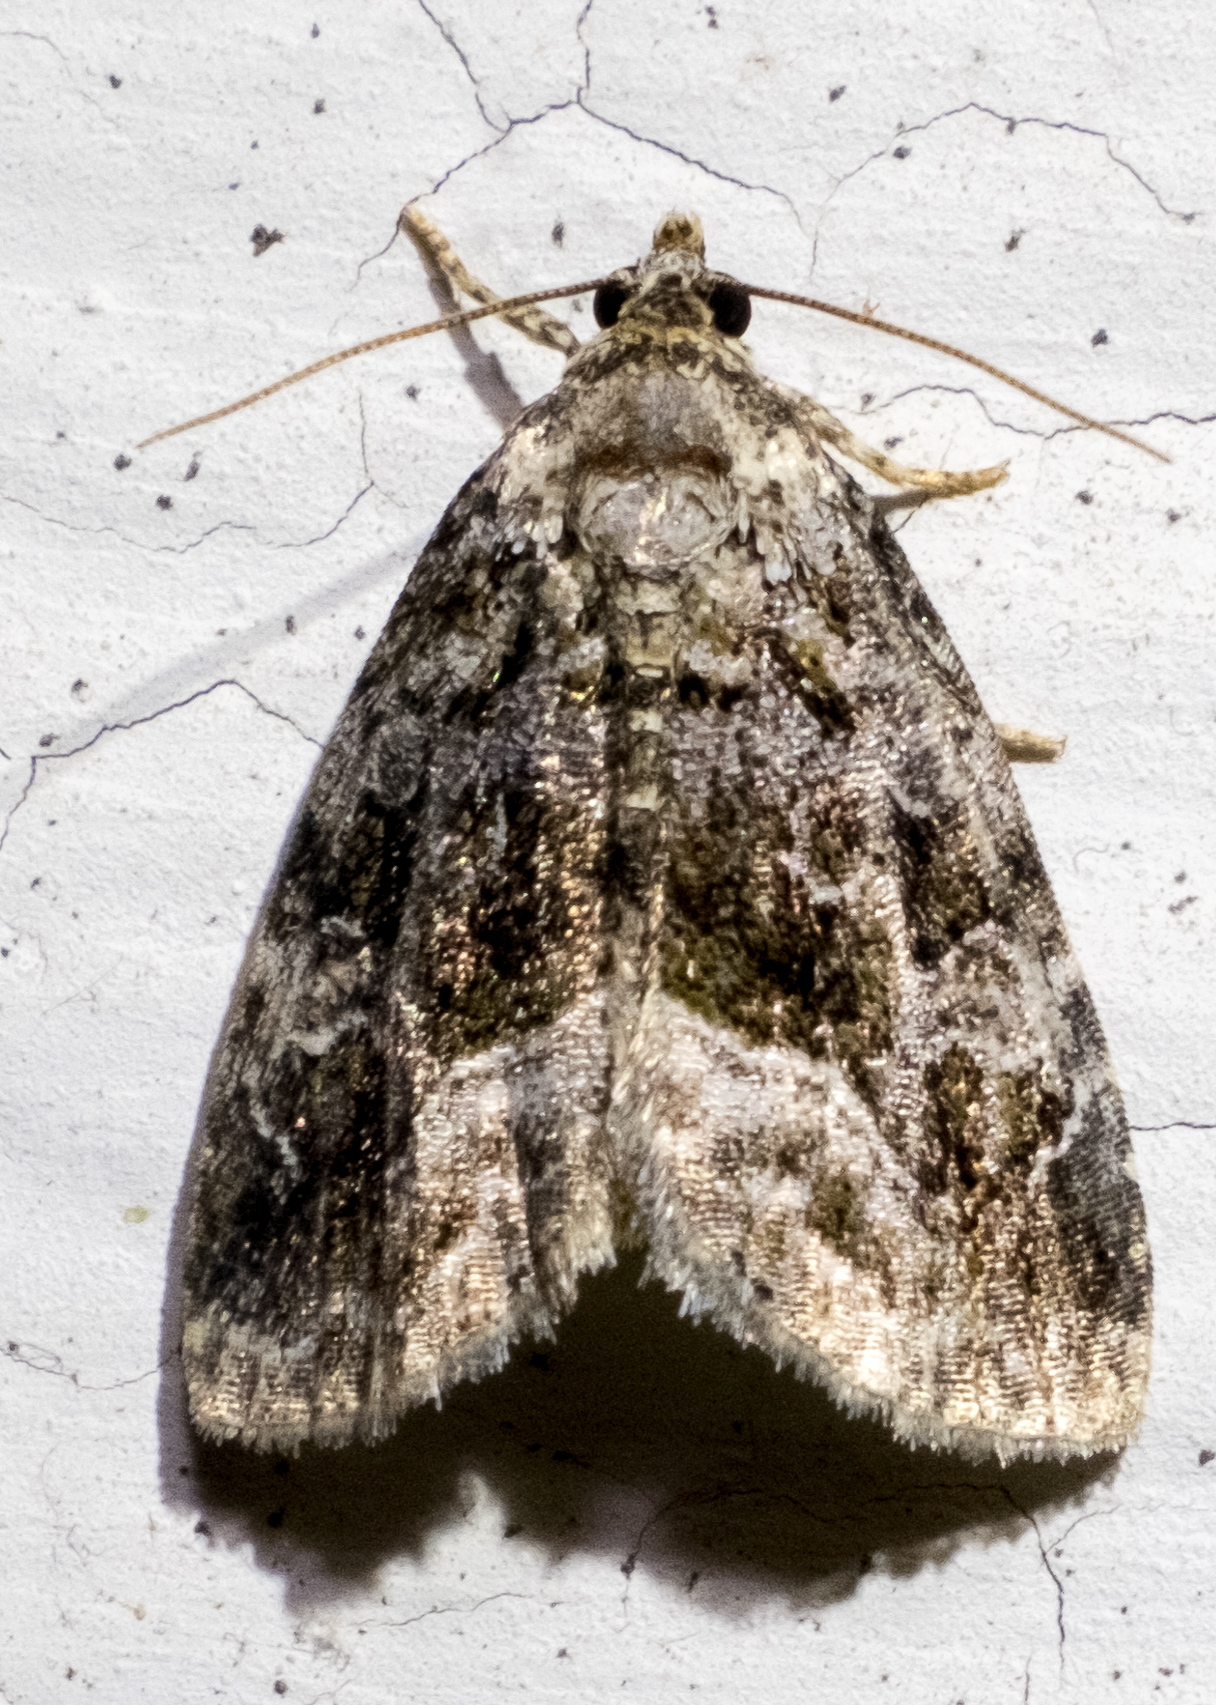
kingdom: Animalia
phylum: Arthropoda
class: Insecta
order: Lepidoptera
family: Noctuidae
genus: Protodeltote
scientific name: Protodeltote muscosula
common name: Large mossy glyph
